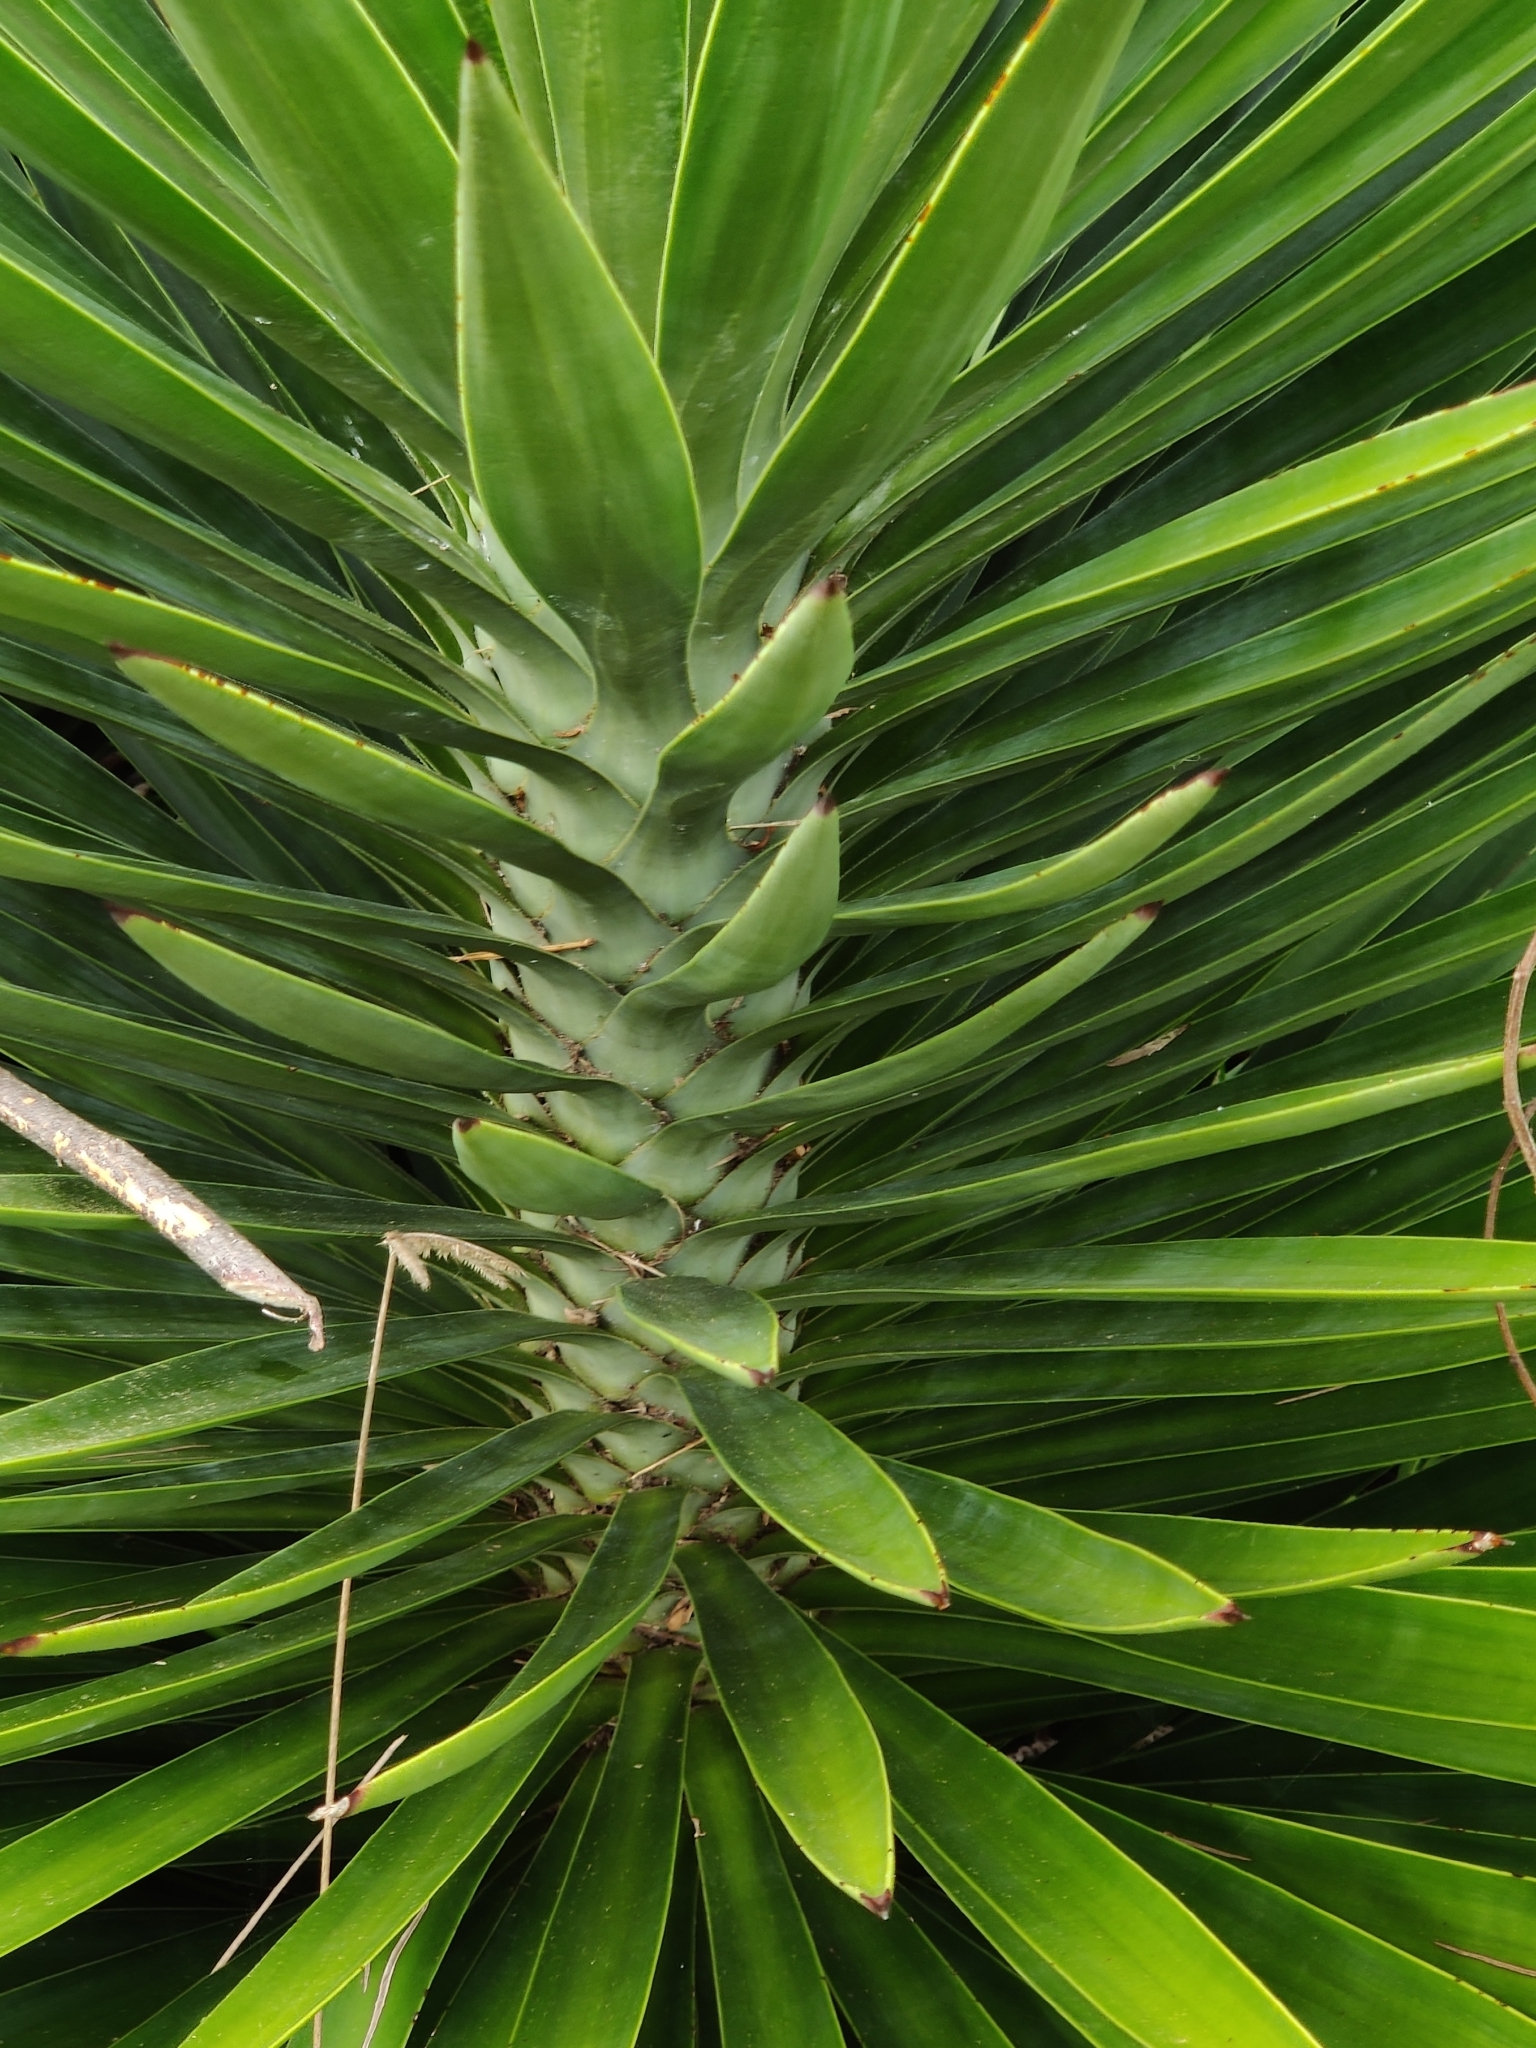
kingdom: Plantae
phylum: Tracheophyta
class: Liliopsida
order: Asparagales
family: Asparagaceae
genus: Yucca
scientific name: Yucca aloifolia
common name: Aloe yucca
